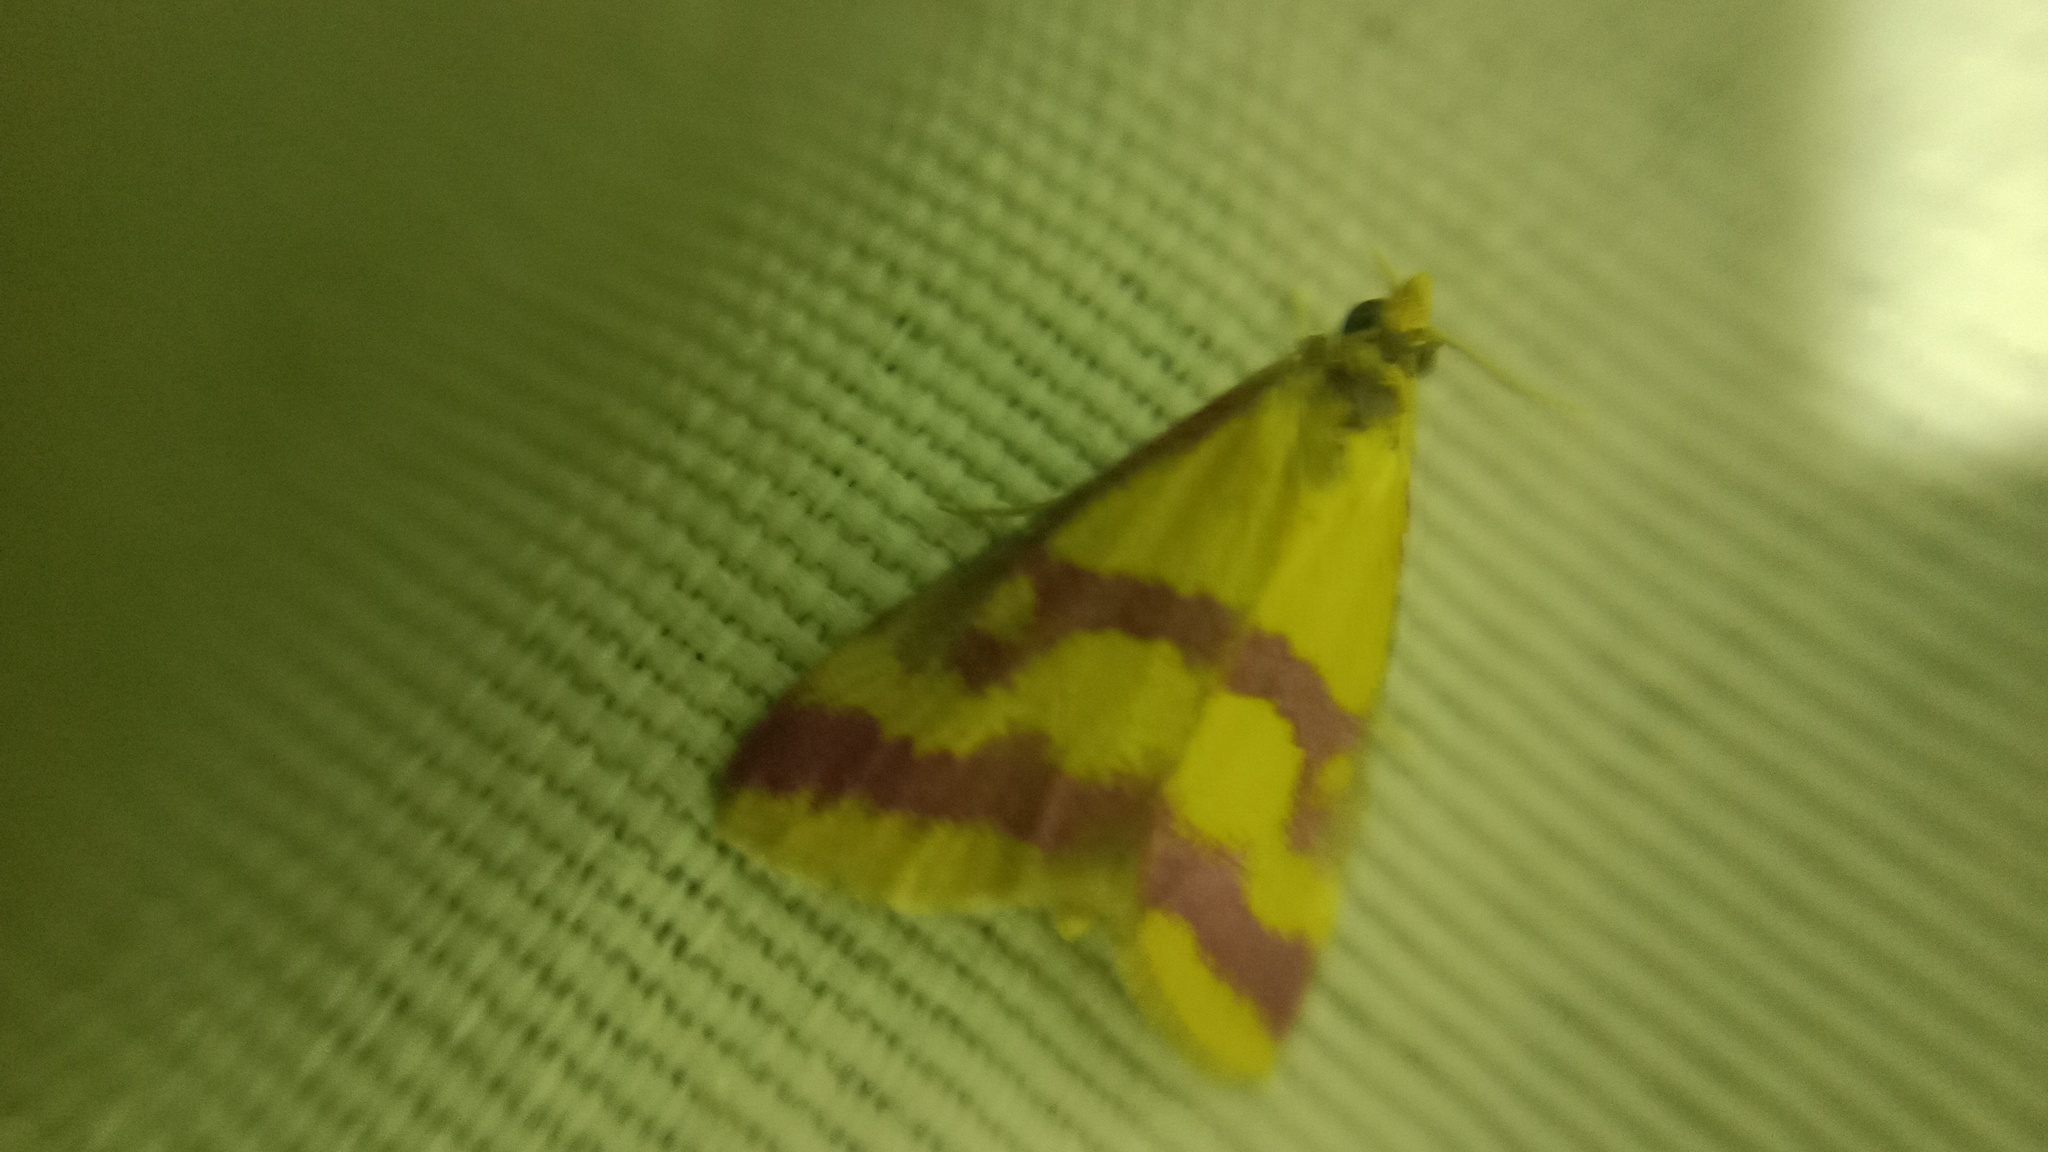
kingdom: Animalia
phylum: Arthropoda
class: Insecta
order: Lepidoptera
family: Crambidae
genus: Pyrausta
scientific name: Pyrausta sanguinalis
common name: Scarce crimson and gold
